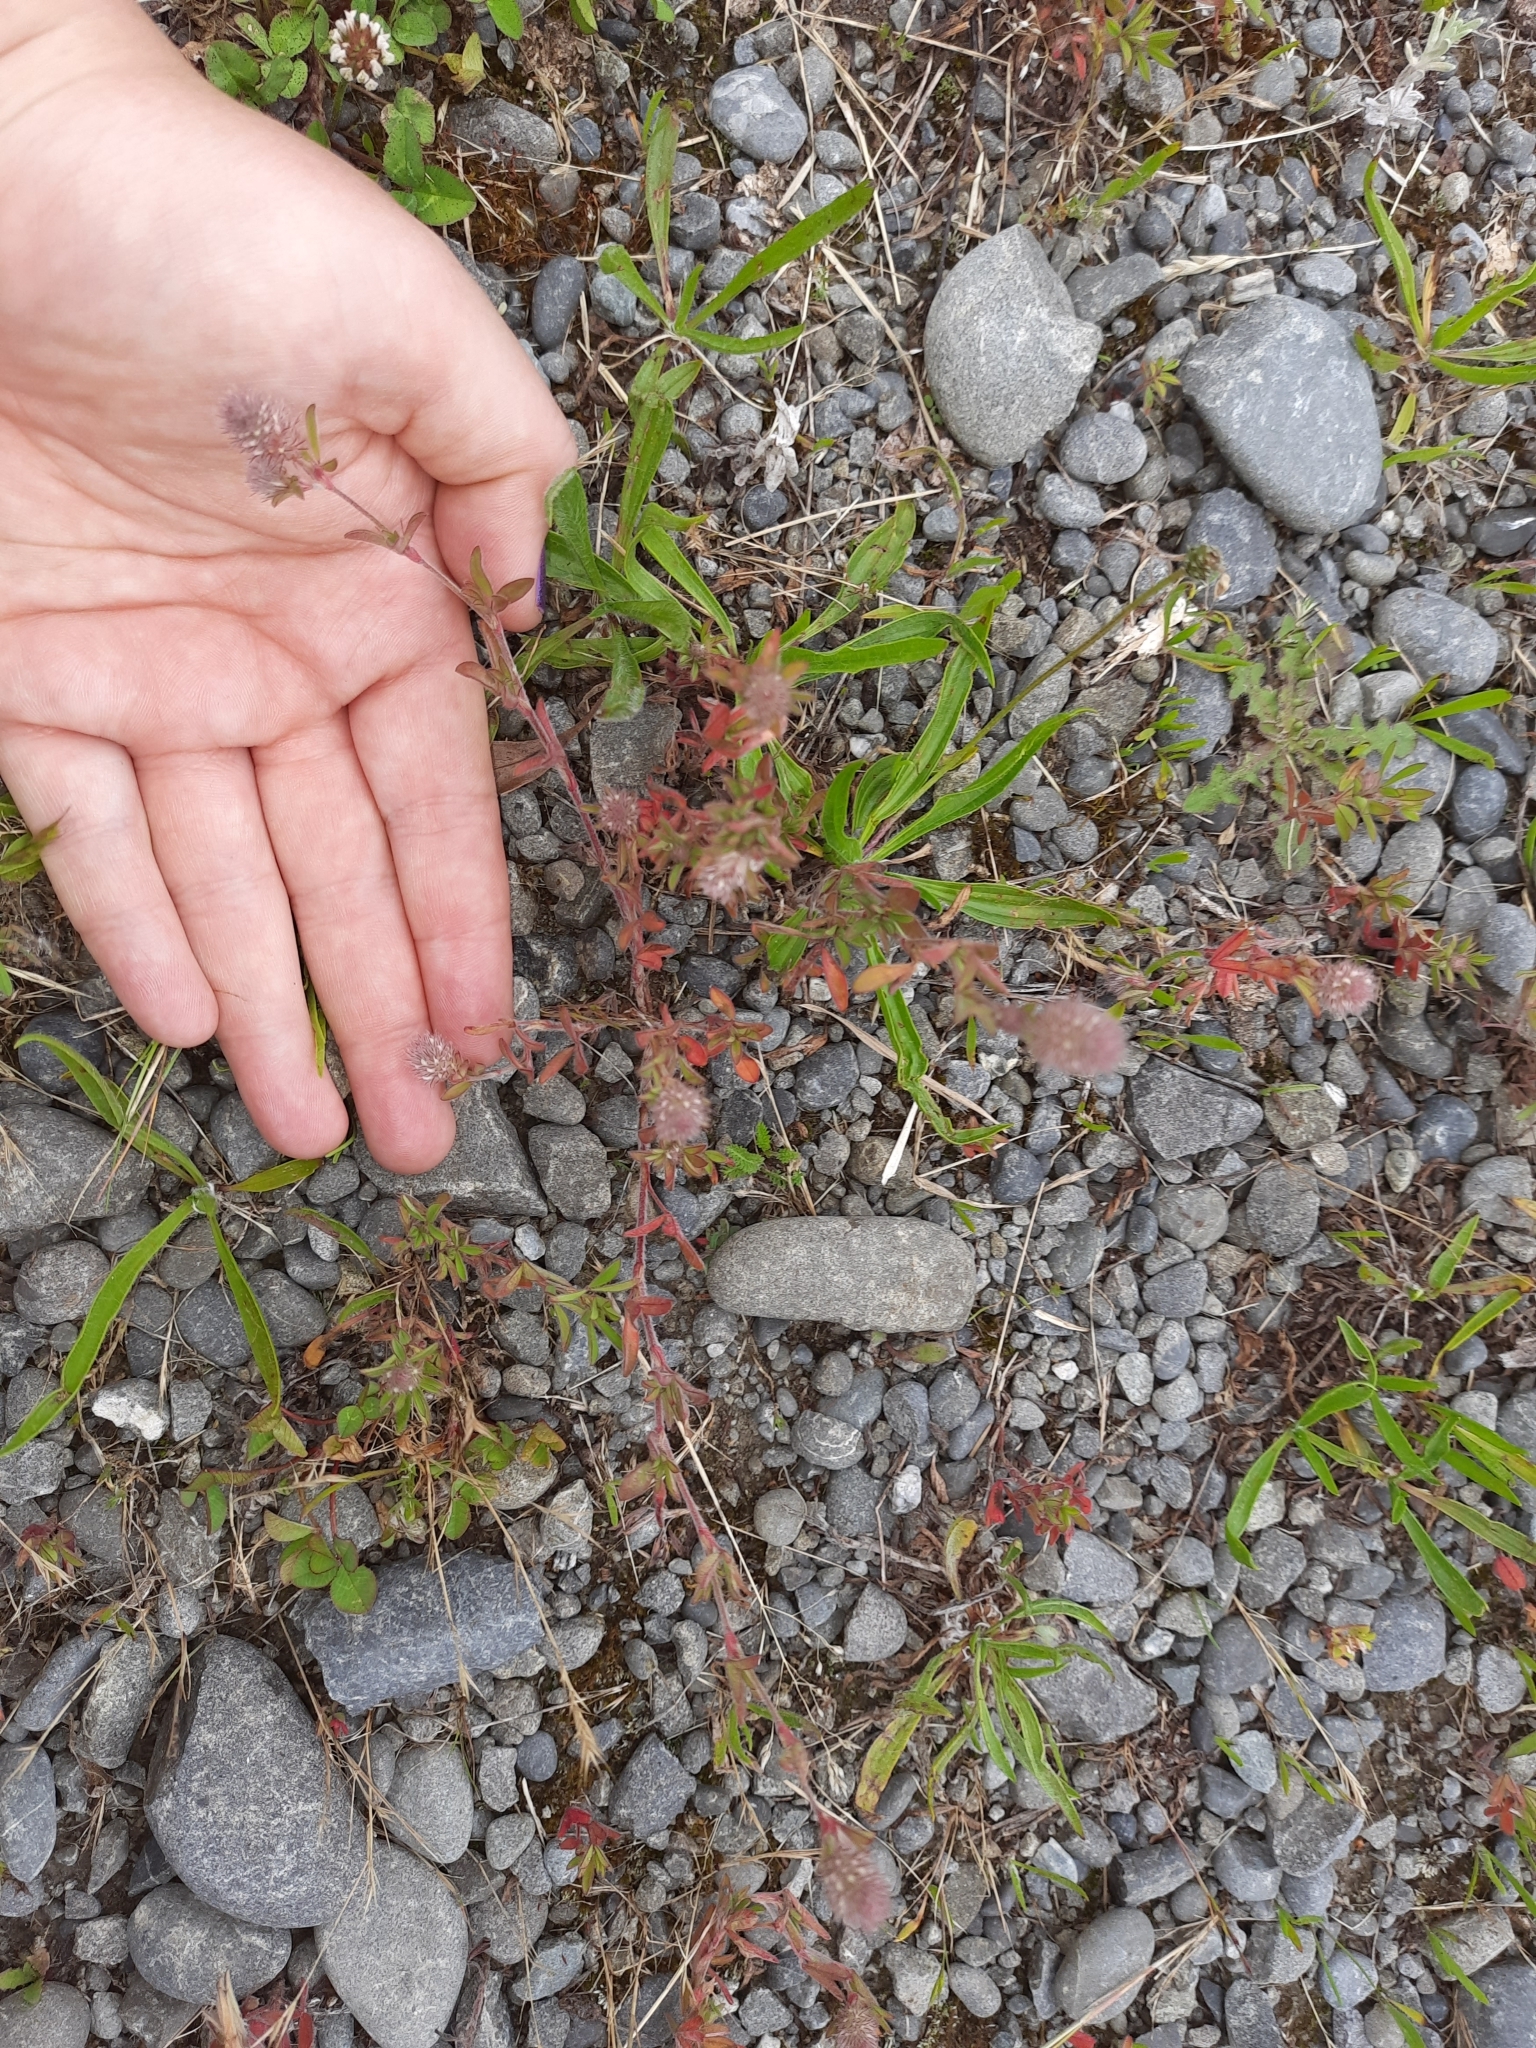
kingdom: Plantae
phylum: Tracheophyta
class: Magnoliopsida
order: Fabales
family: Fabaceae
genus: Trifolium
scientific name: Trifolium arvense
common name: Hare's-foot clover
